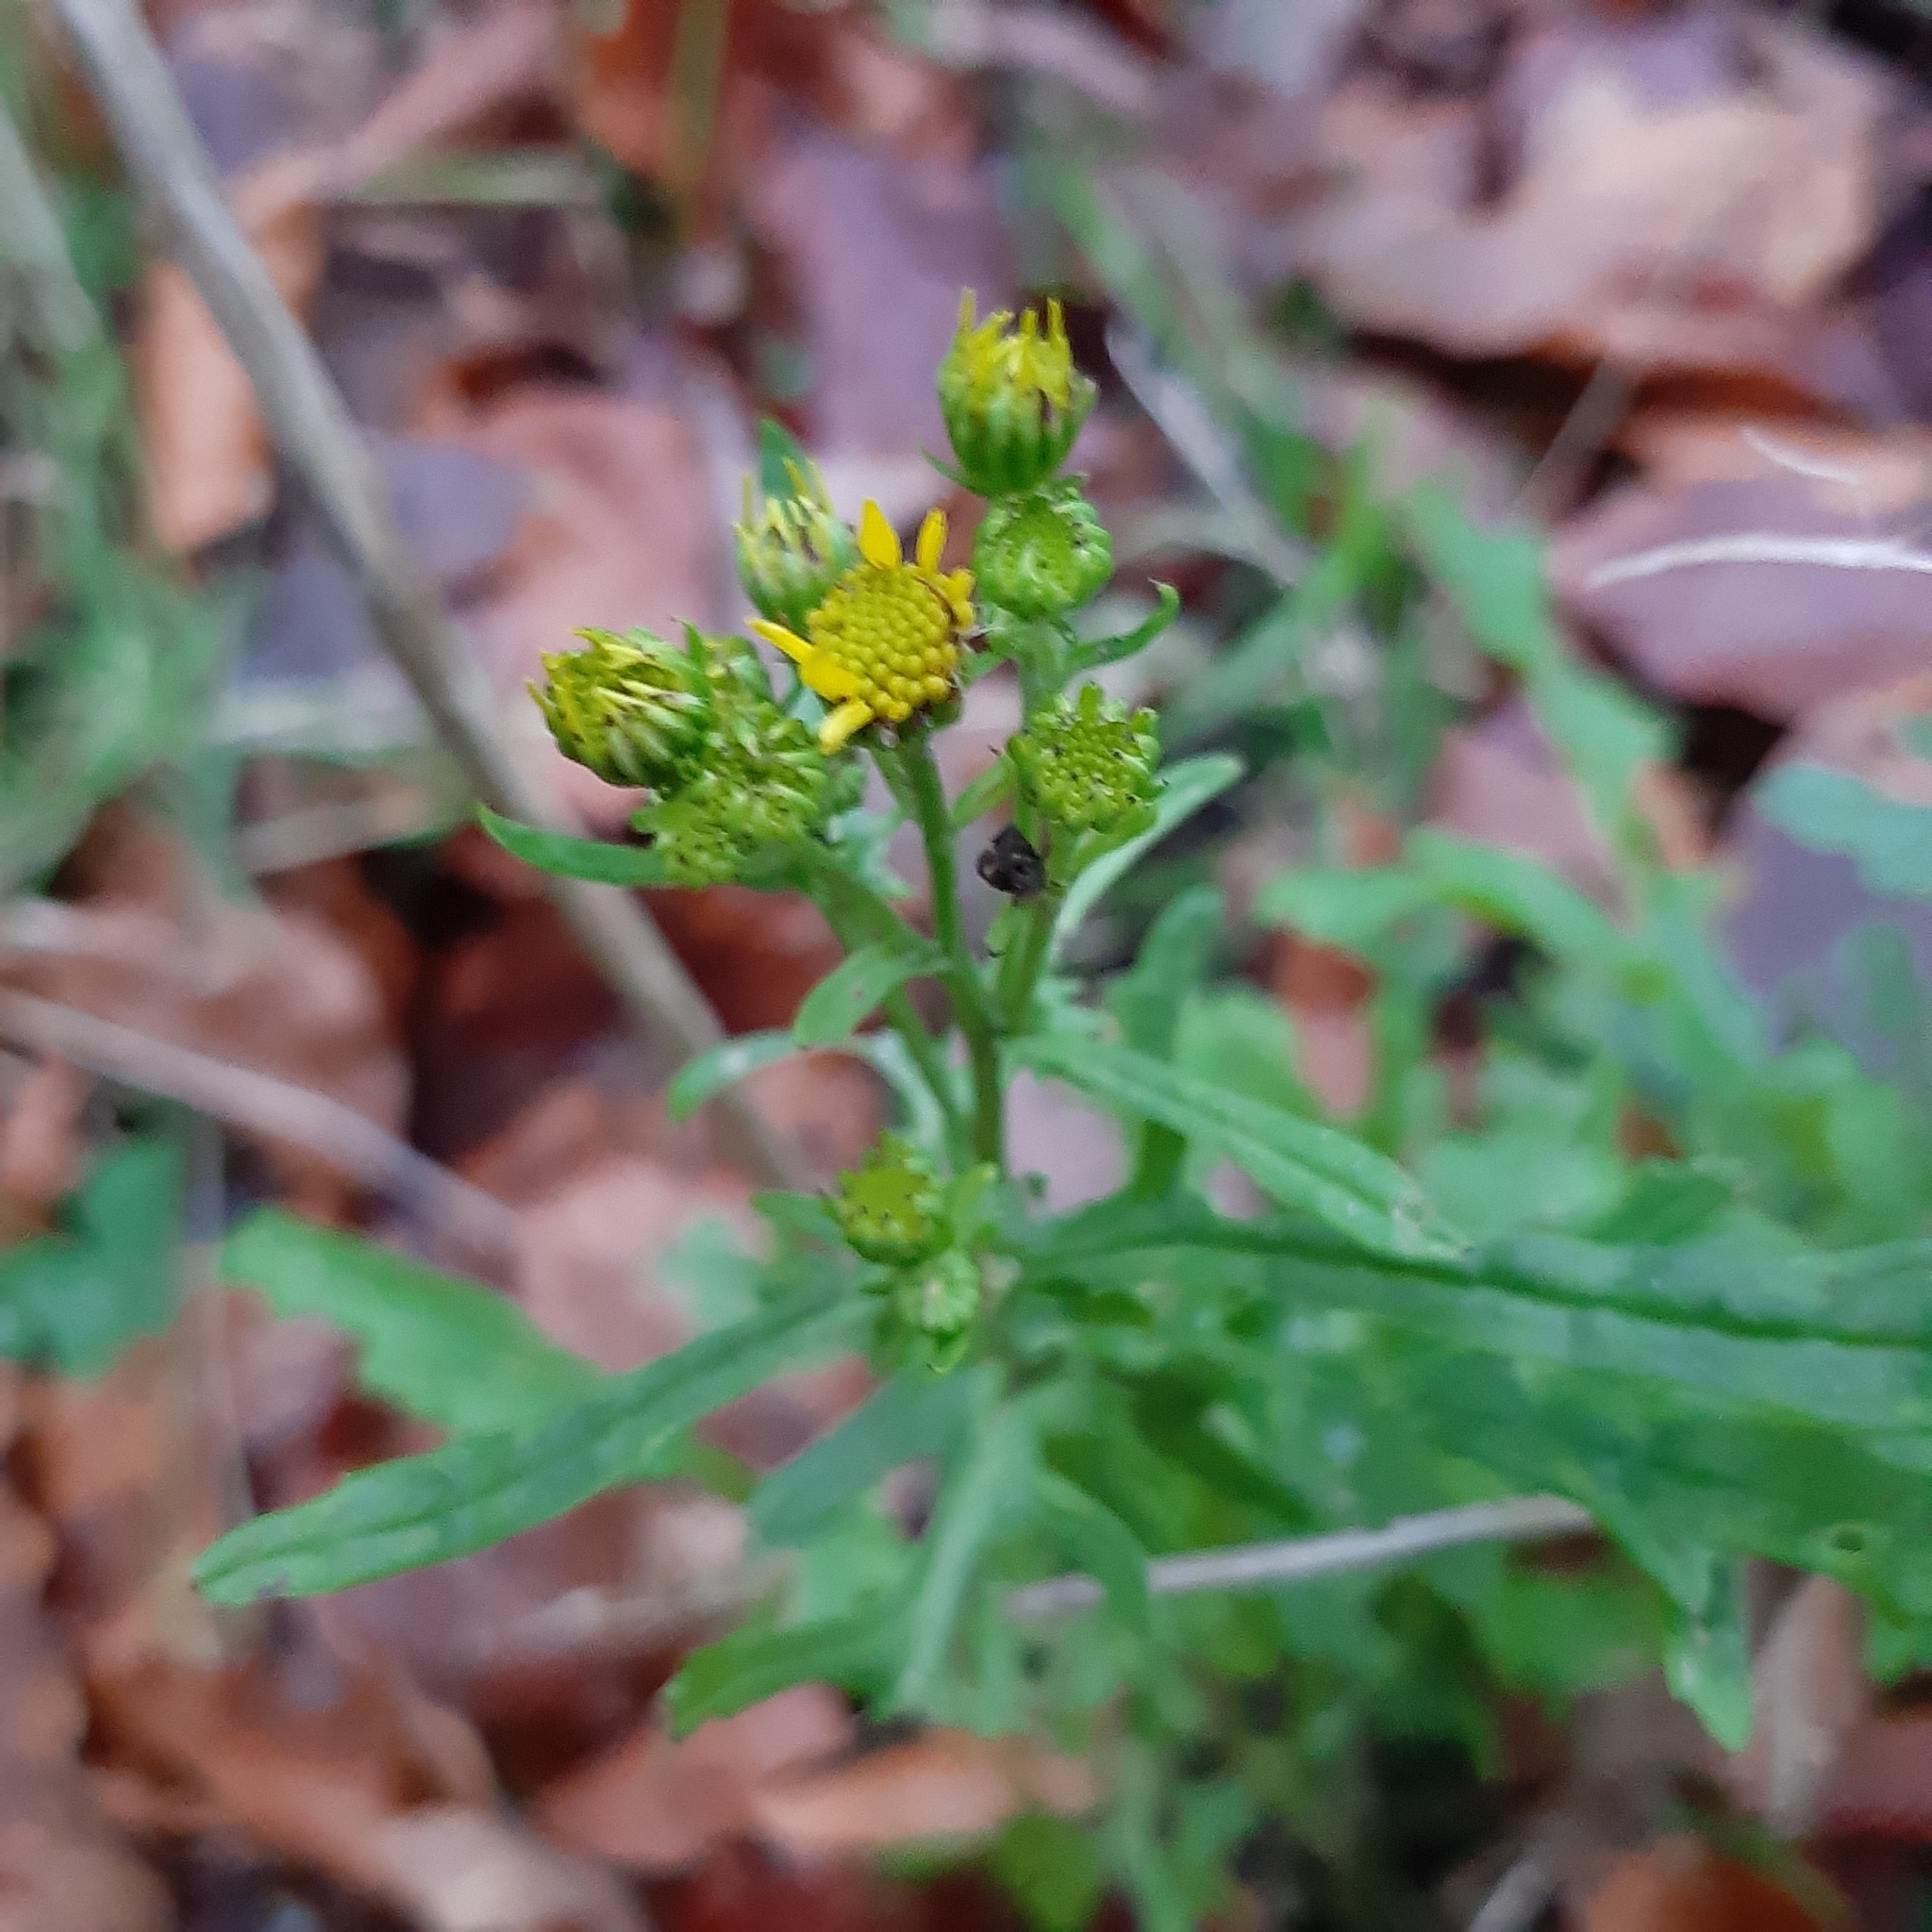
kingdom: Plantae
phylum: Tracheophyta
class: Magnoliopsida
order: Asterales
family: Asteraceae
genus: Senecio
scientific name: Senecio vulgaris
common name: Old-man-in-the-spring
